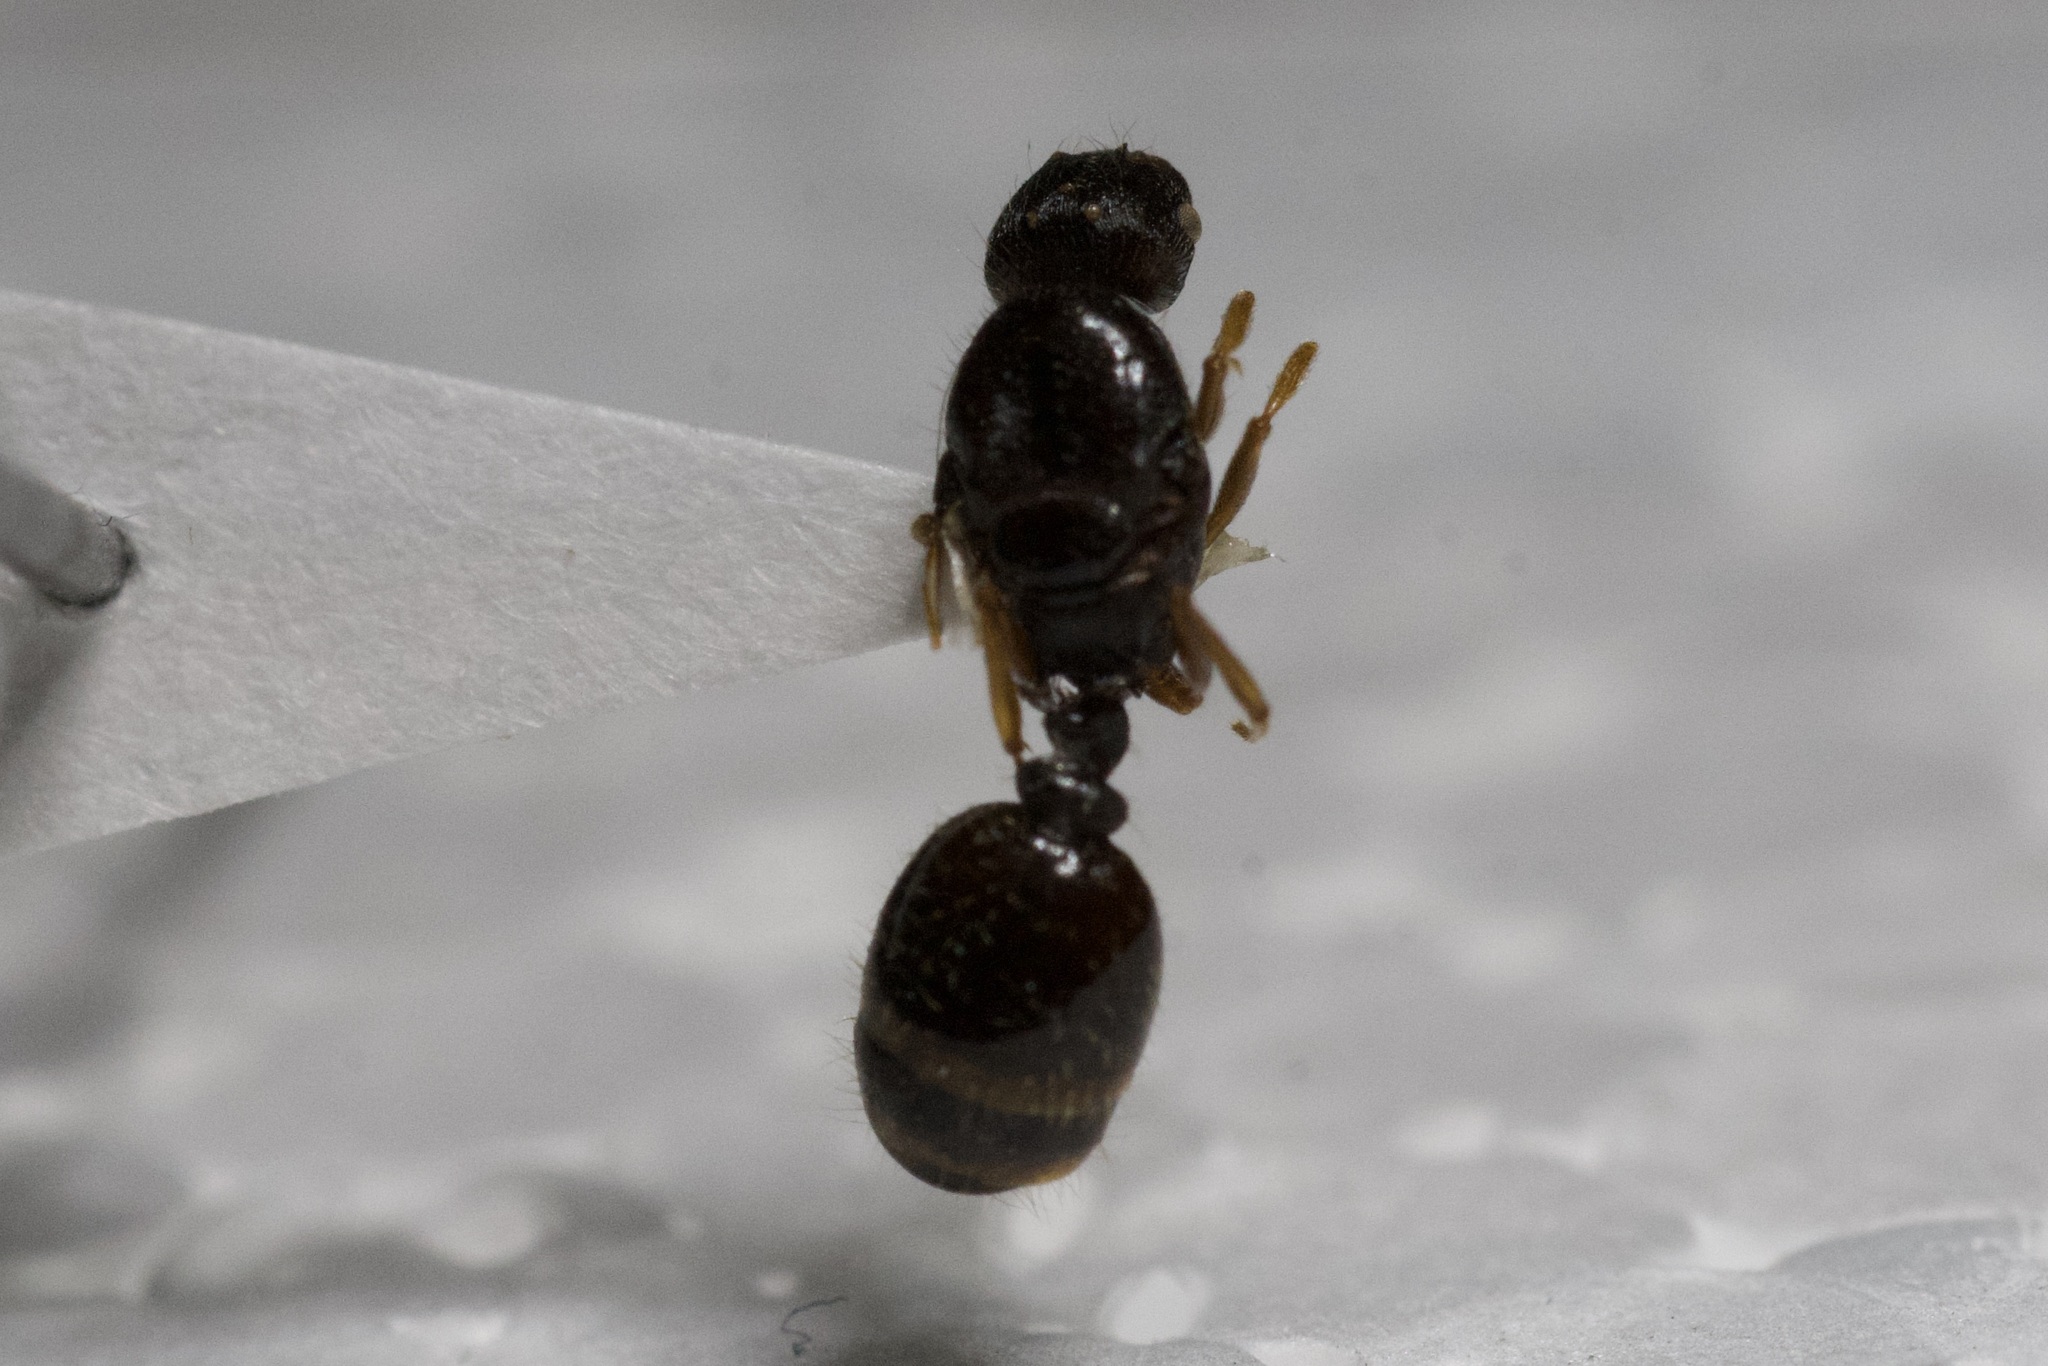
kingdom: Animalia
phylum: Arthropoda
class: Insecta
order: Hymenoptera
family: Formicidae
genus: Tetramorium
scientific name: Tetramorium immigrans
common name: Pavement ant
